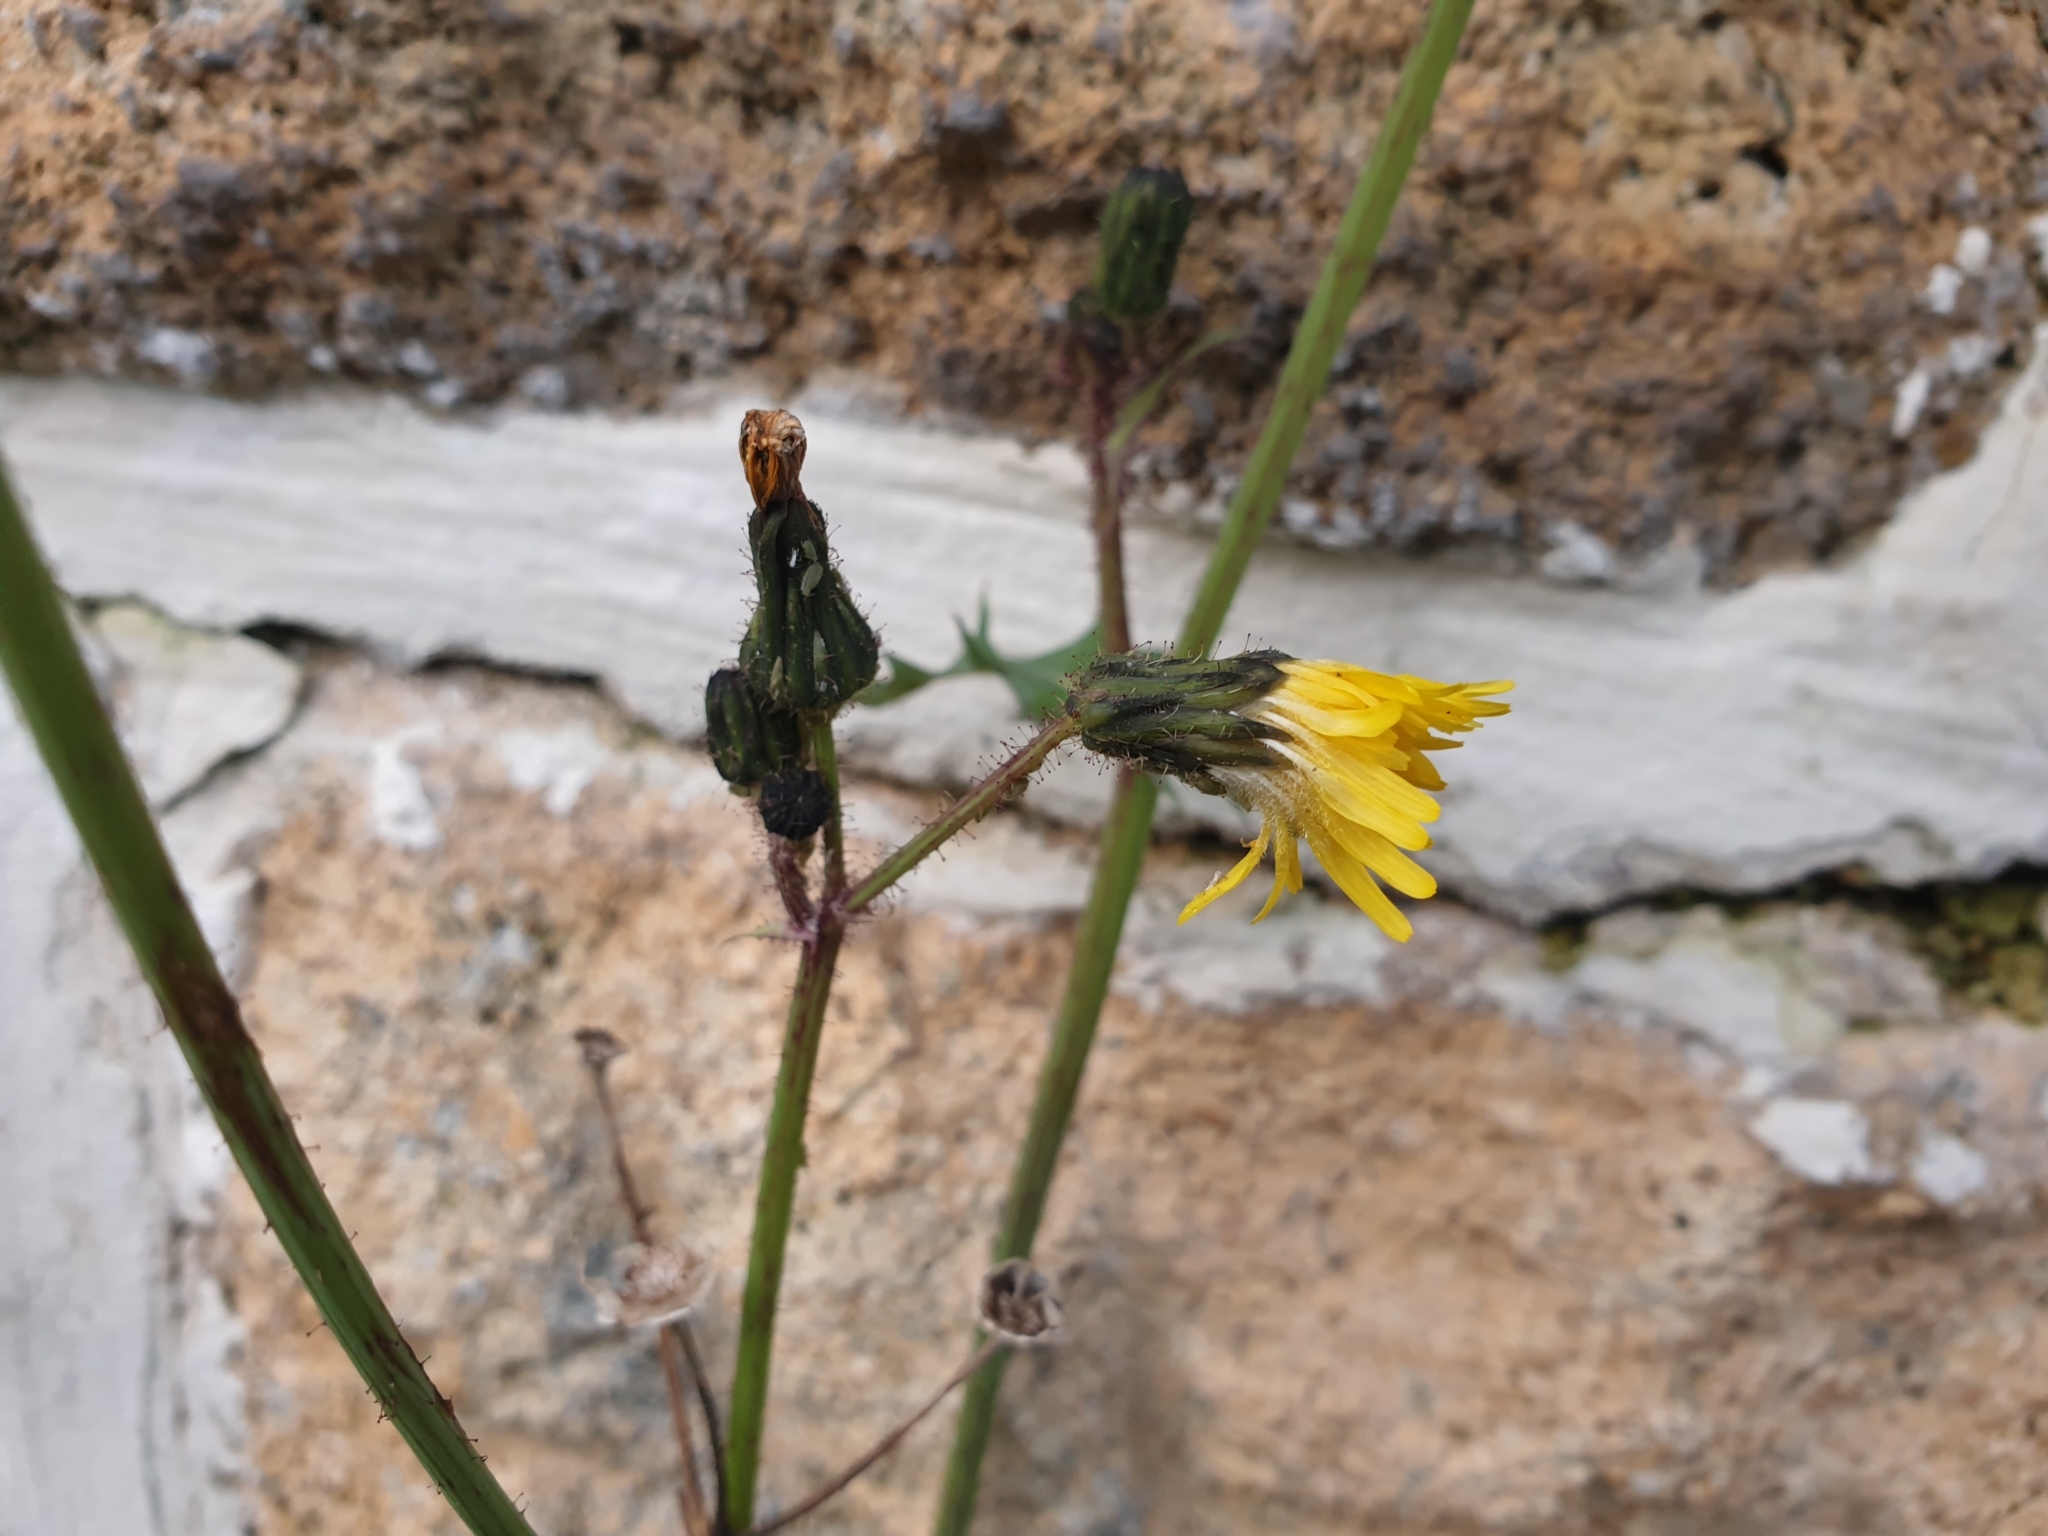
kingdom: Plantae
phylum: Tracheophyta
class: Magnoliopsida
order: Asterales
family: Asteraceae
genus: Sonchus
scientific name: Sonchus oleraceus
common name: Common sowthistle
